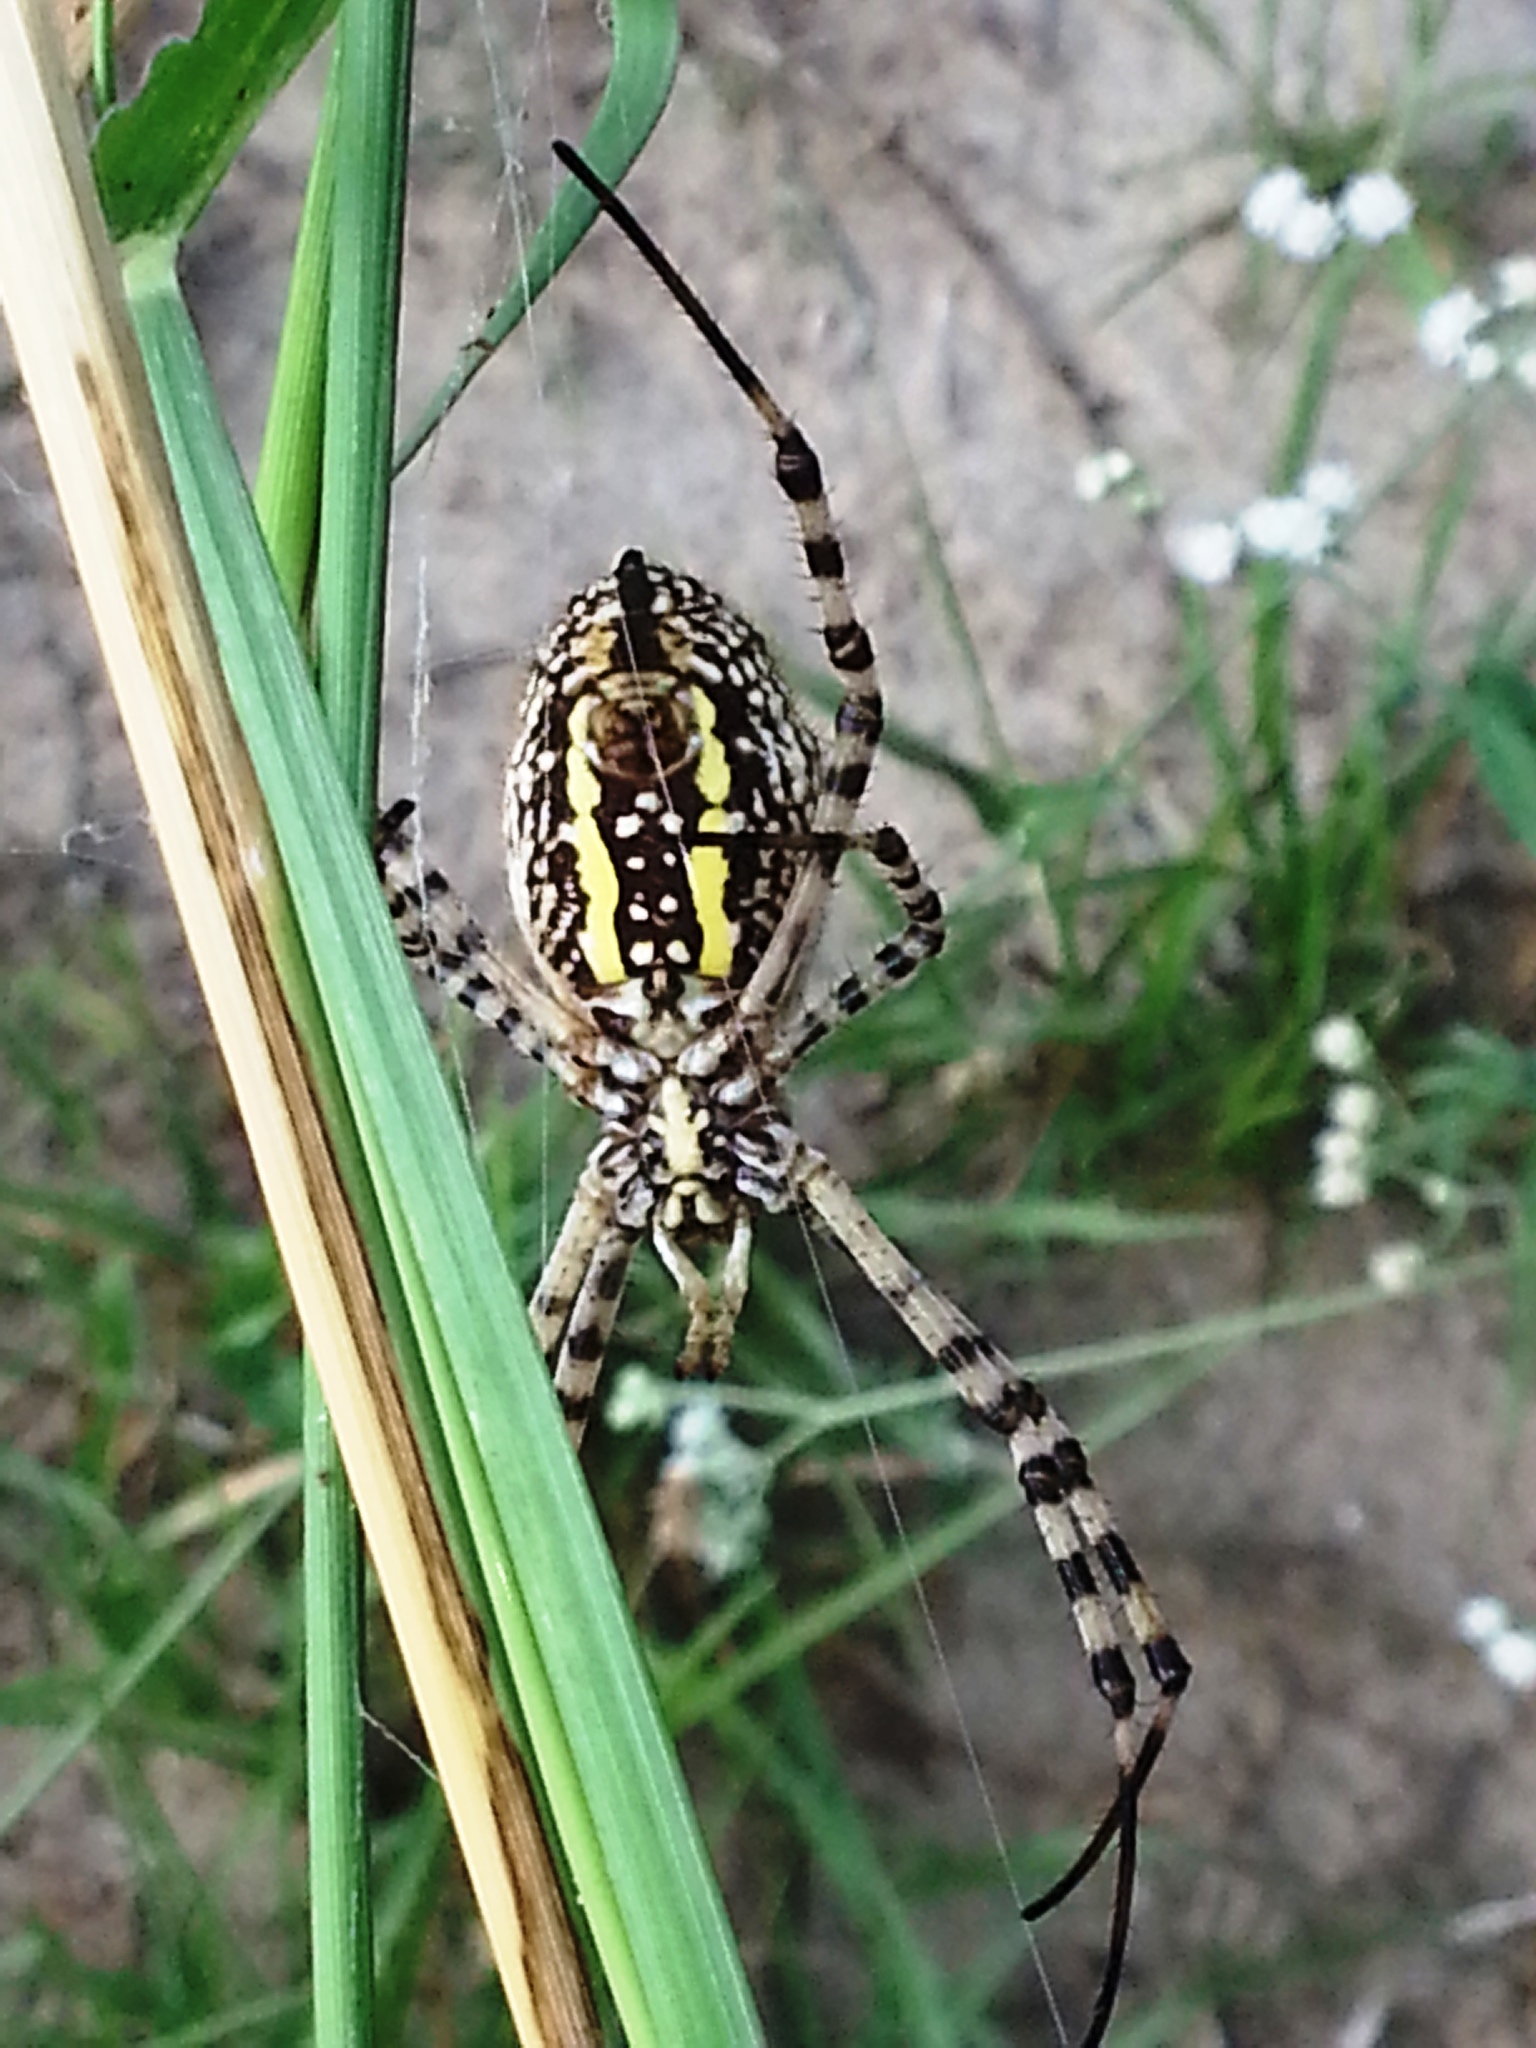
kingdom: Animalia
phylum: Arthropoda
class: Arachnida
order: Araneae
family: Araneidae
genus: Argiope
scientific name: Argiope trifasciata
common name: Banded garden spider
